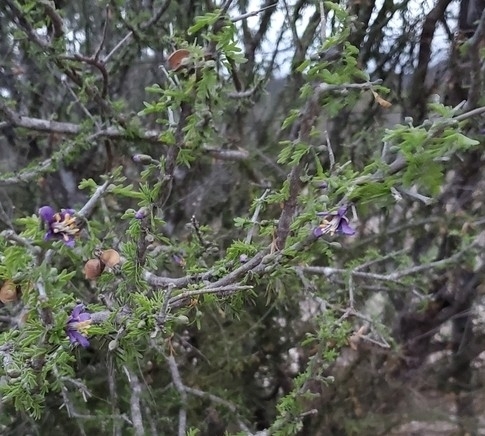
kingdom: Plantae
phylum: Tracheophyta
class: Magnoliopsida
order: Zygophyllales
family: Zygophyllaceae
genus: Porlieria
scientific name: Porlieria angustifolia
